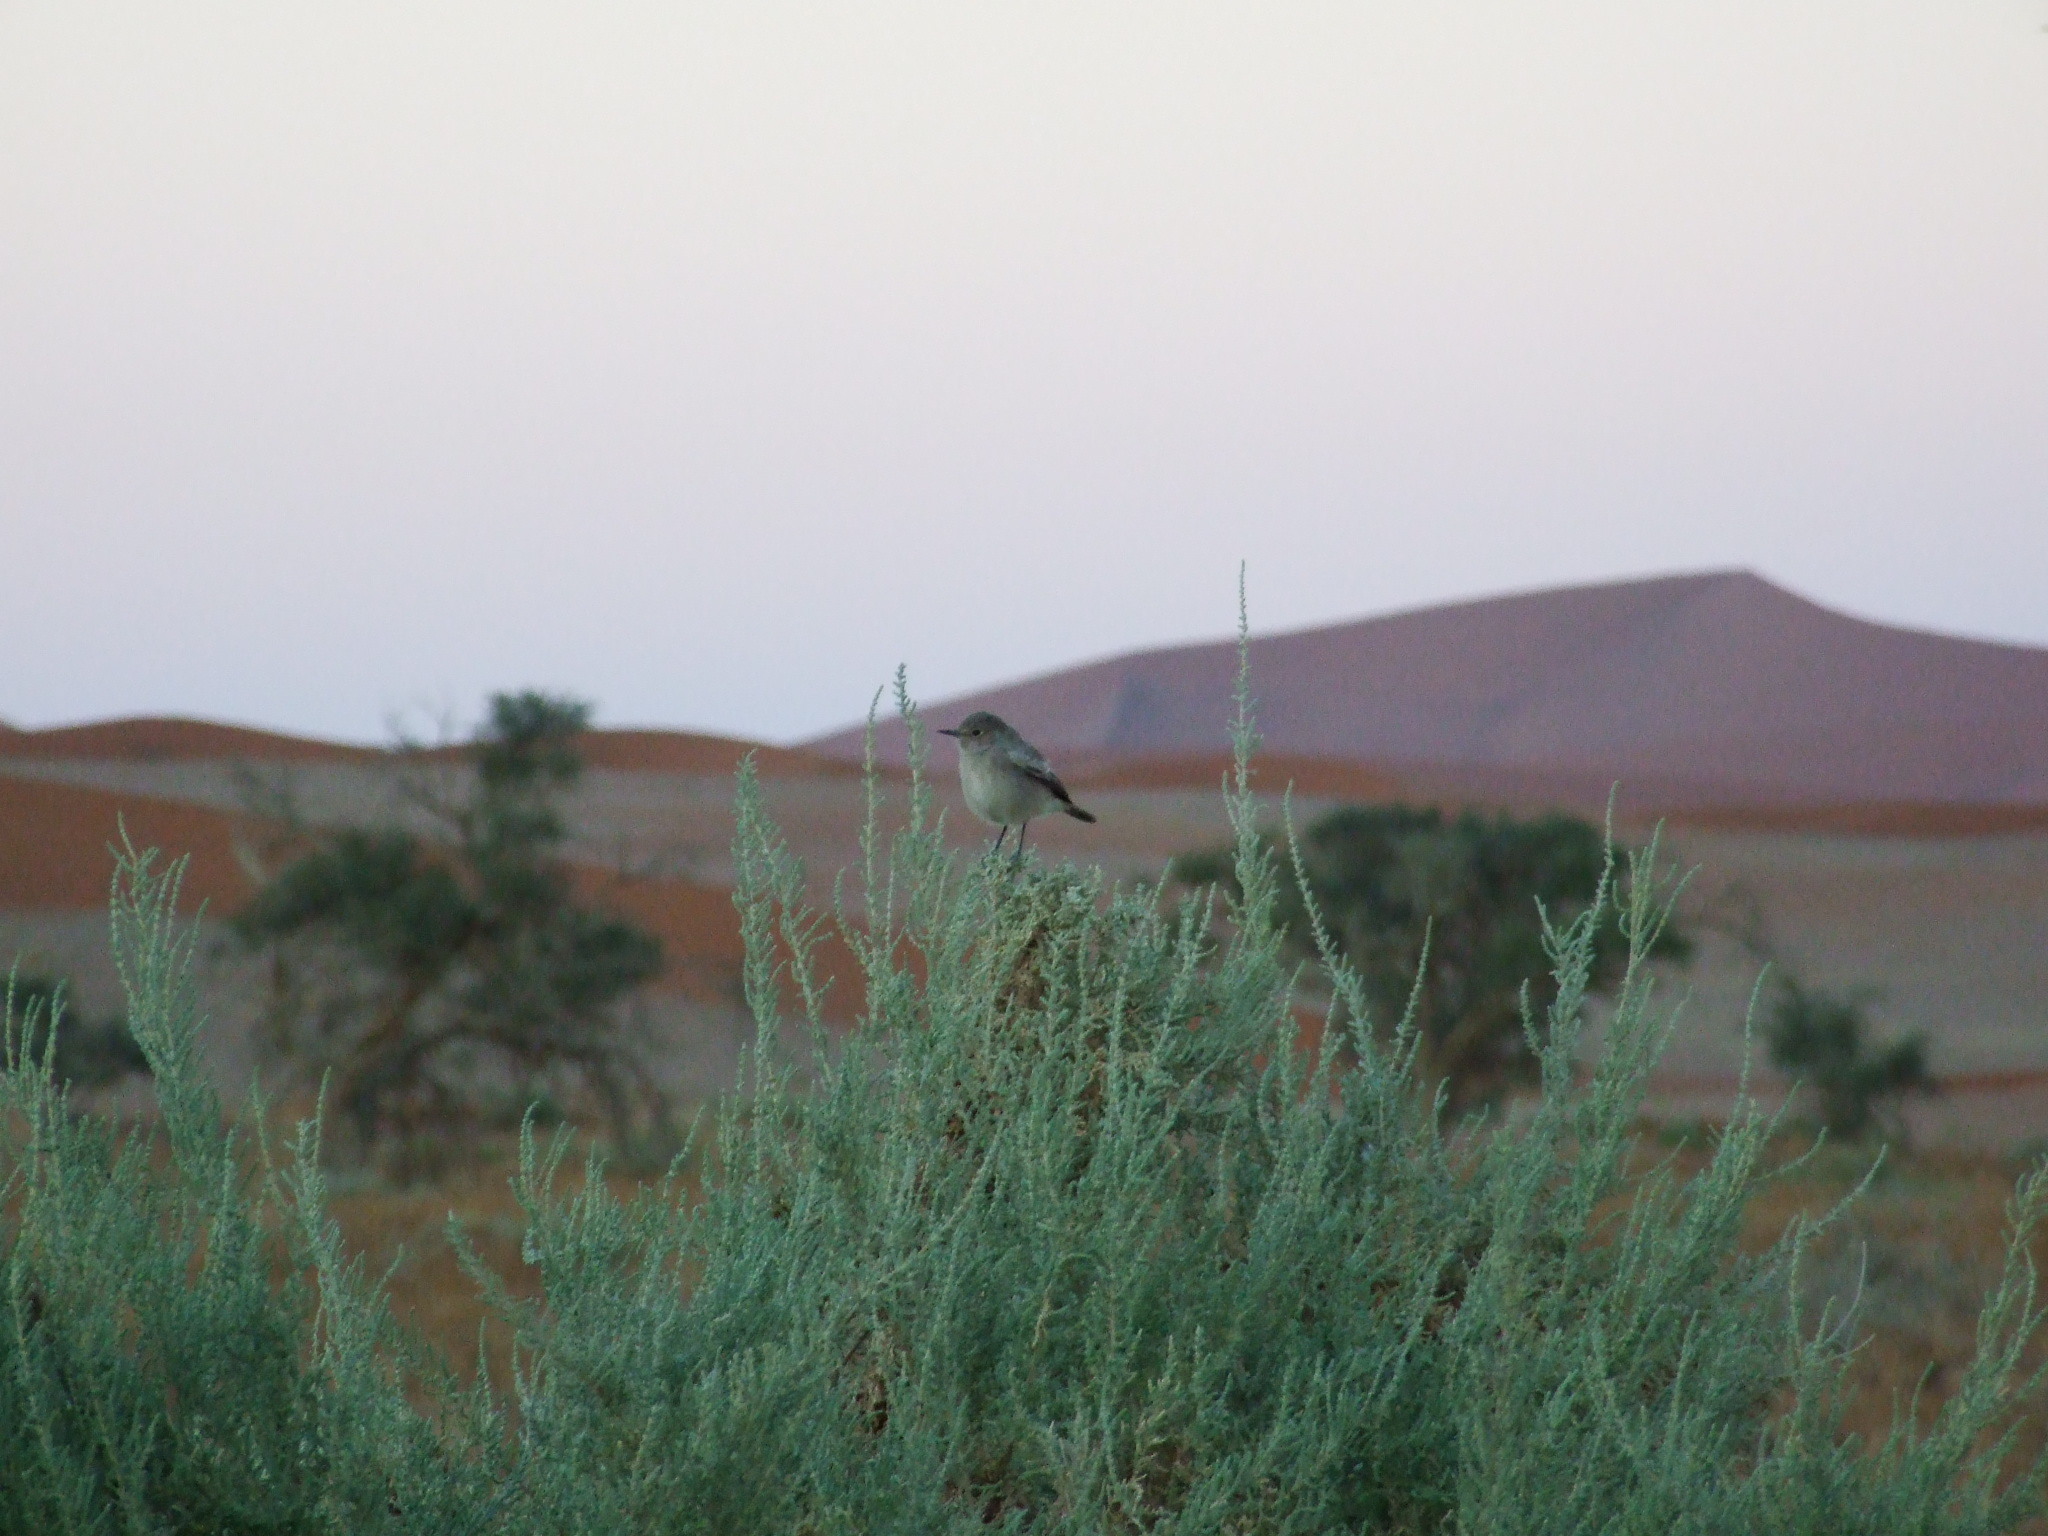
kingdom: Animalia
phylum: Chordata
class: Aves
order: Passeriformes
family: Muscicapidae
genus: Oenanthe
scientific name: Oenanthe familiaris
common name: Familiar chat
